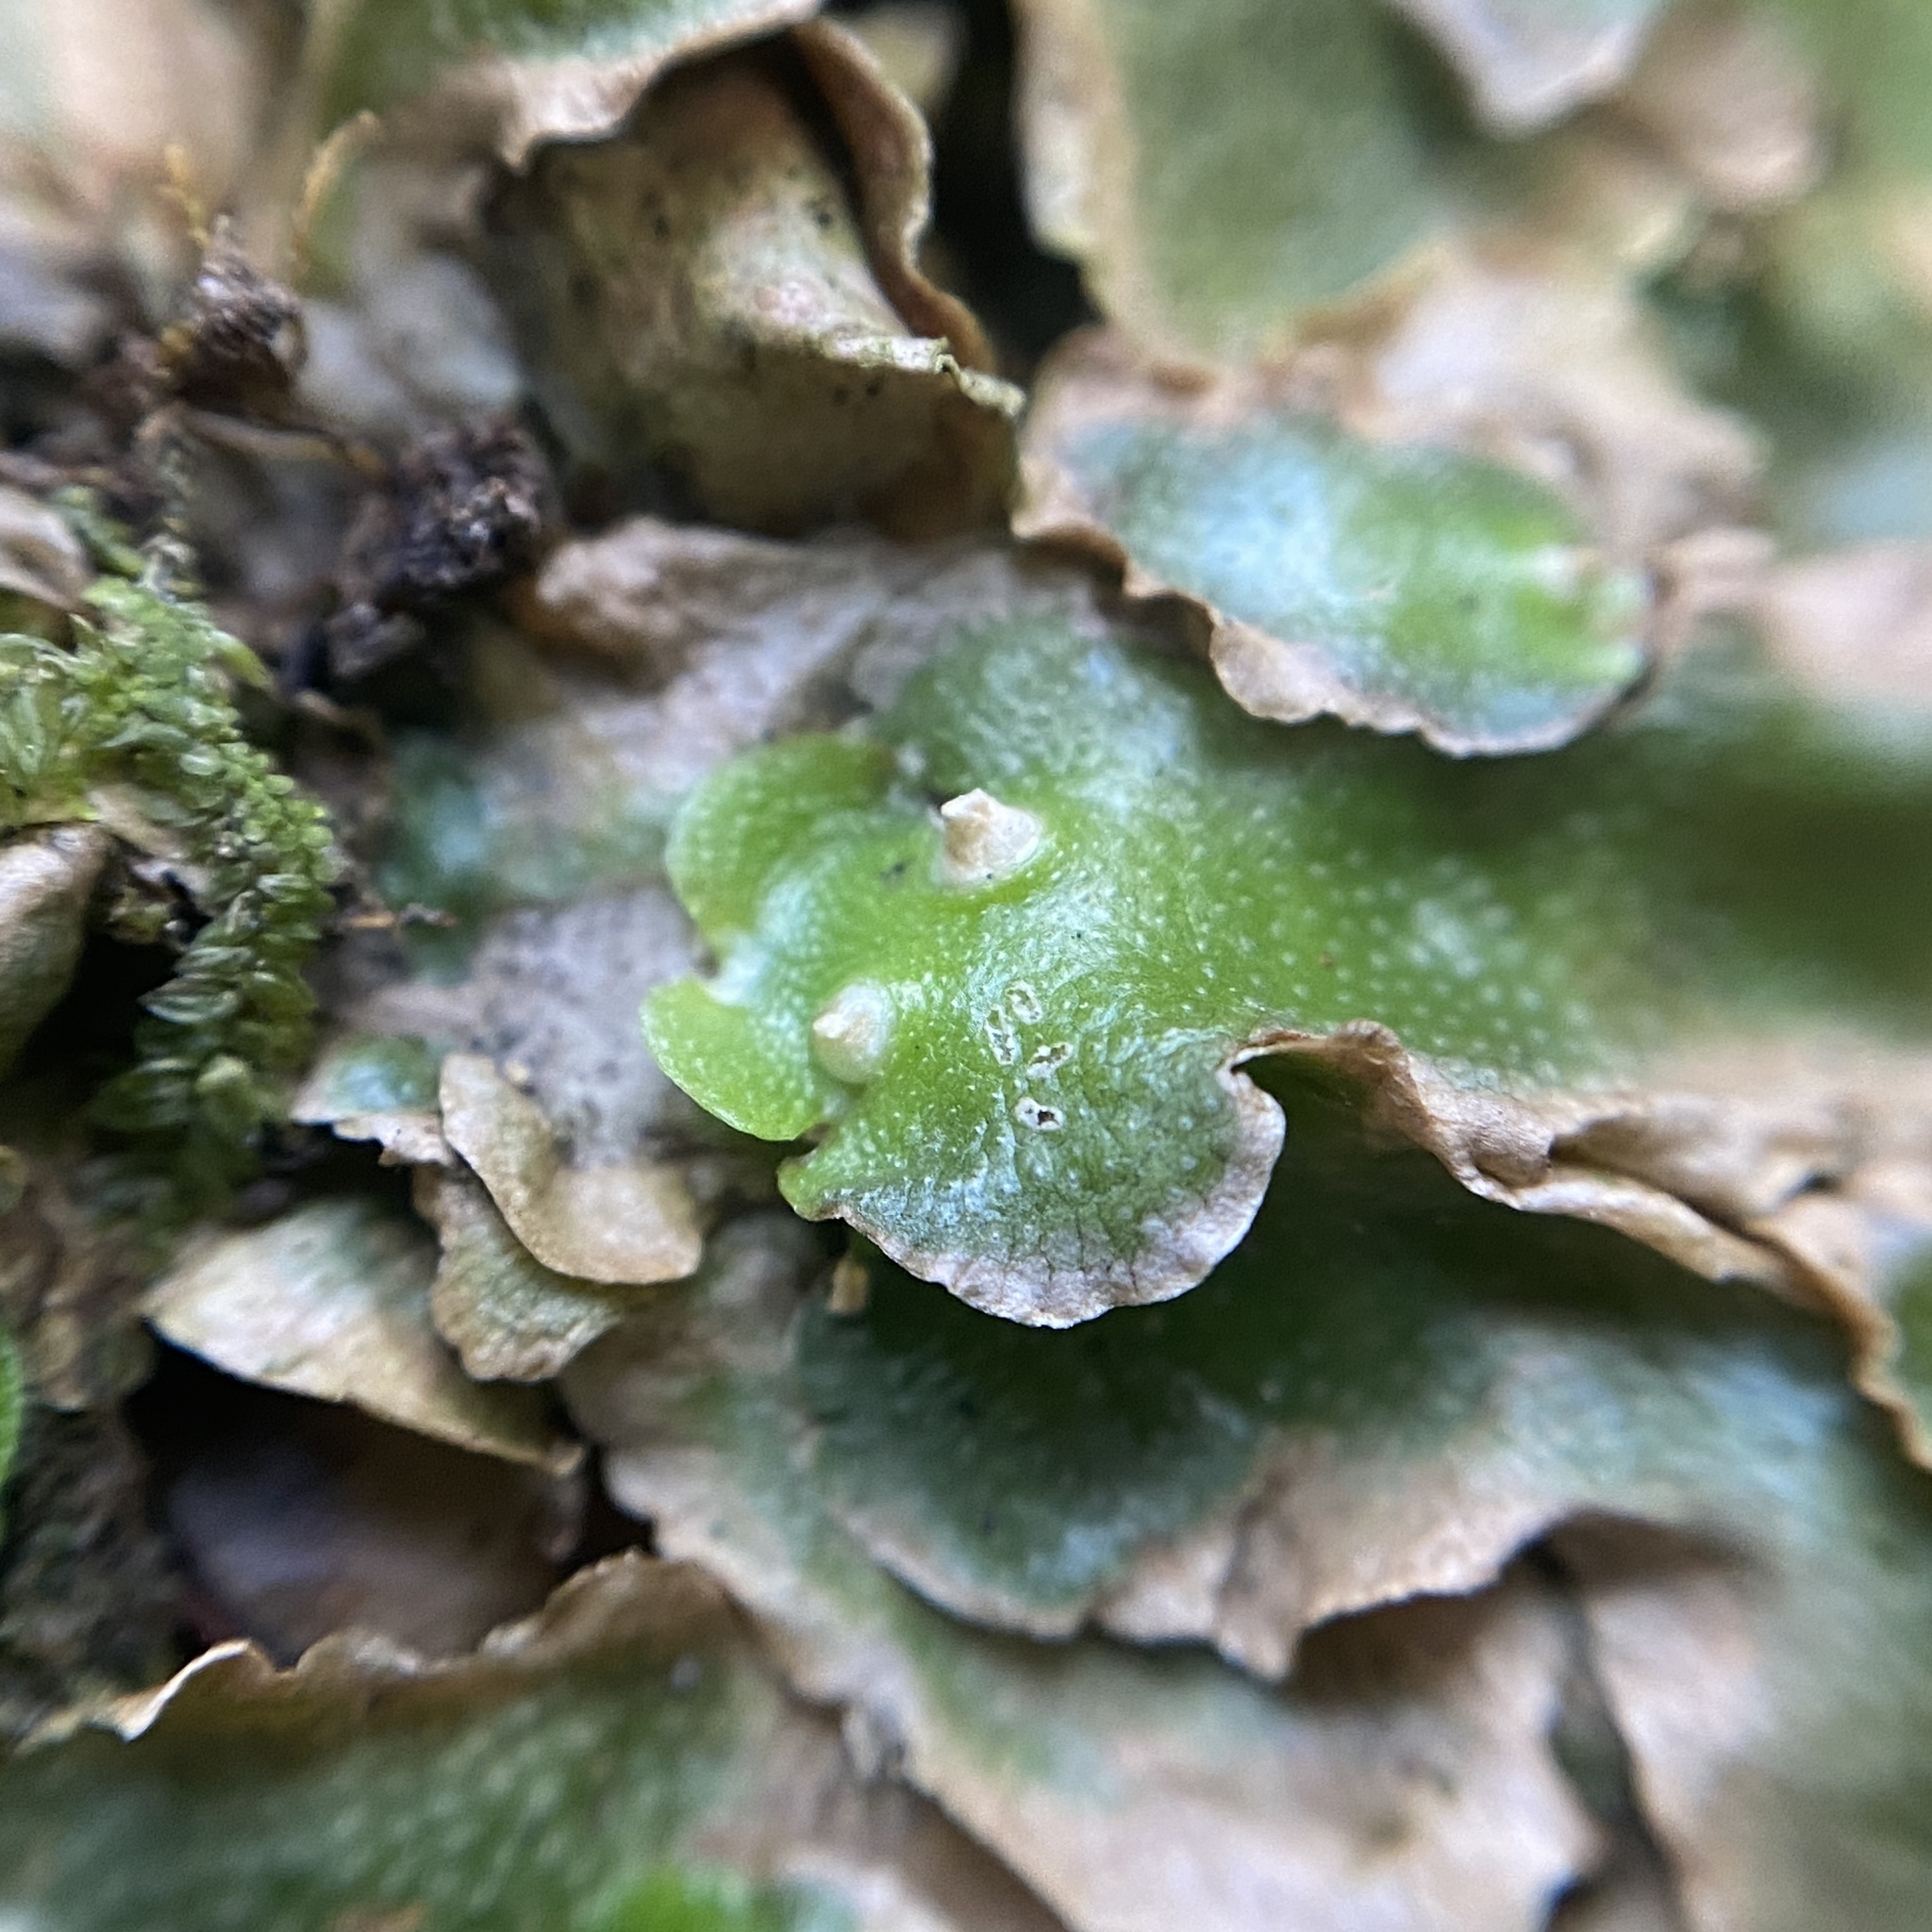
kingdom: Plantae
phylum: Marchantiophyta
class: Marchantiopsida
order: Lunulariales
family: Lunulariaceae
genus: Lunularia
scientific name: Lunularia cruciata
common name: Crescent-cup liverwort
